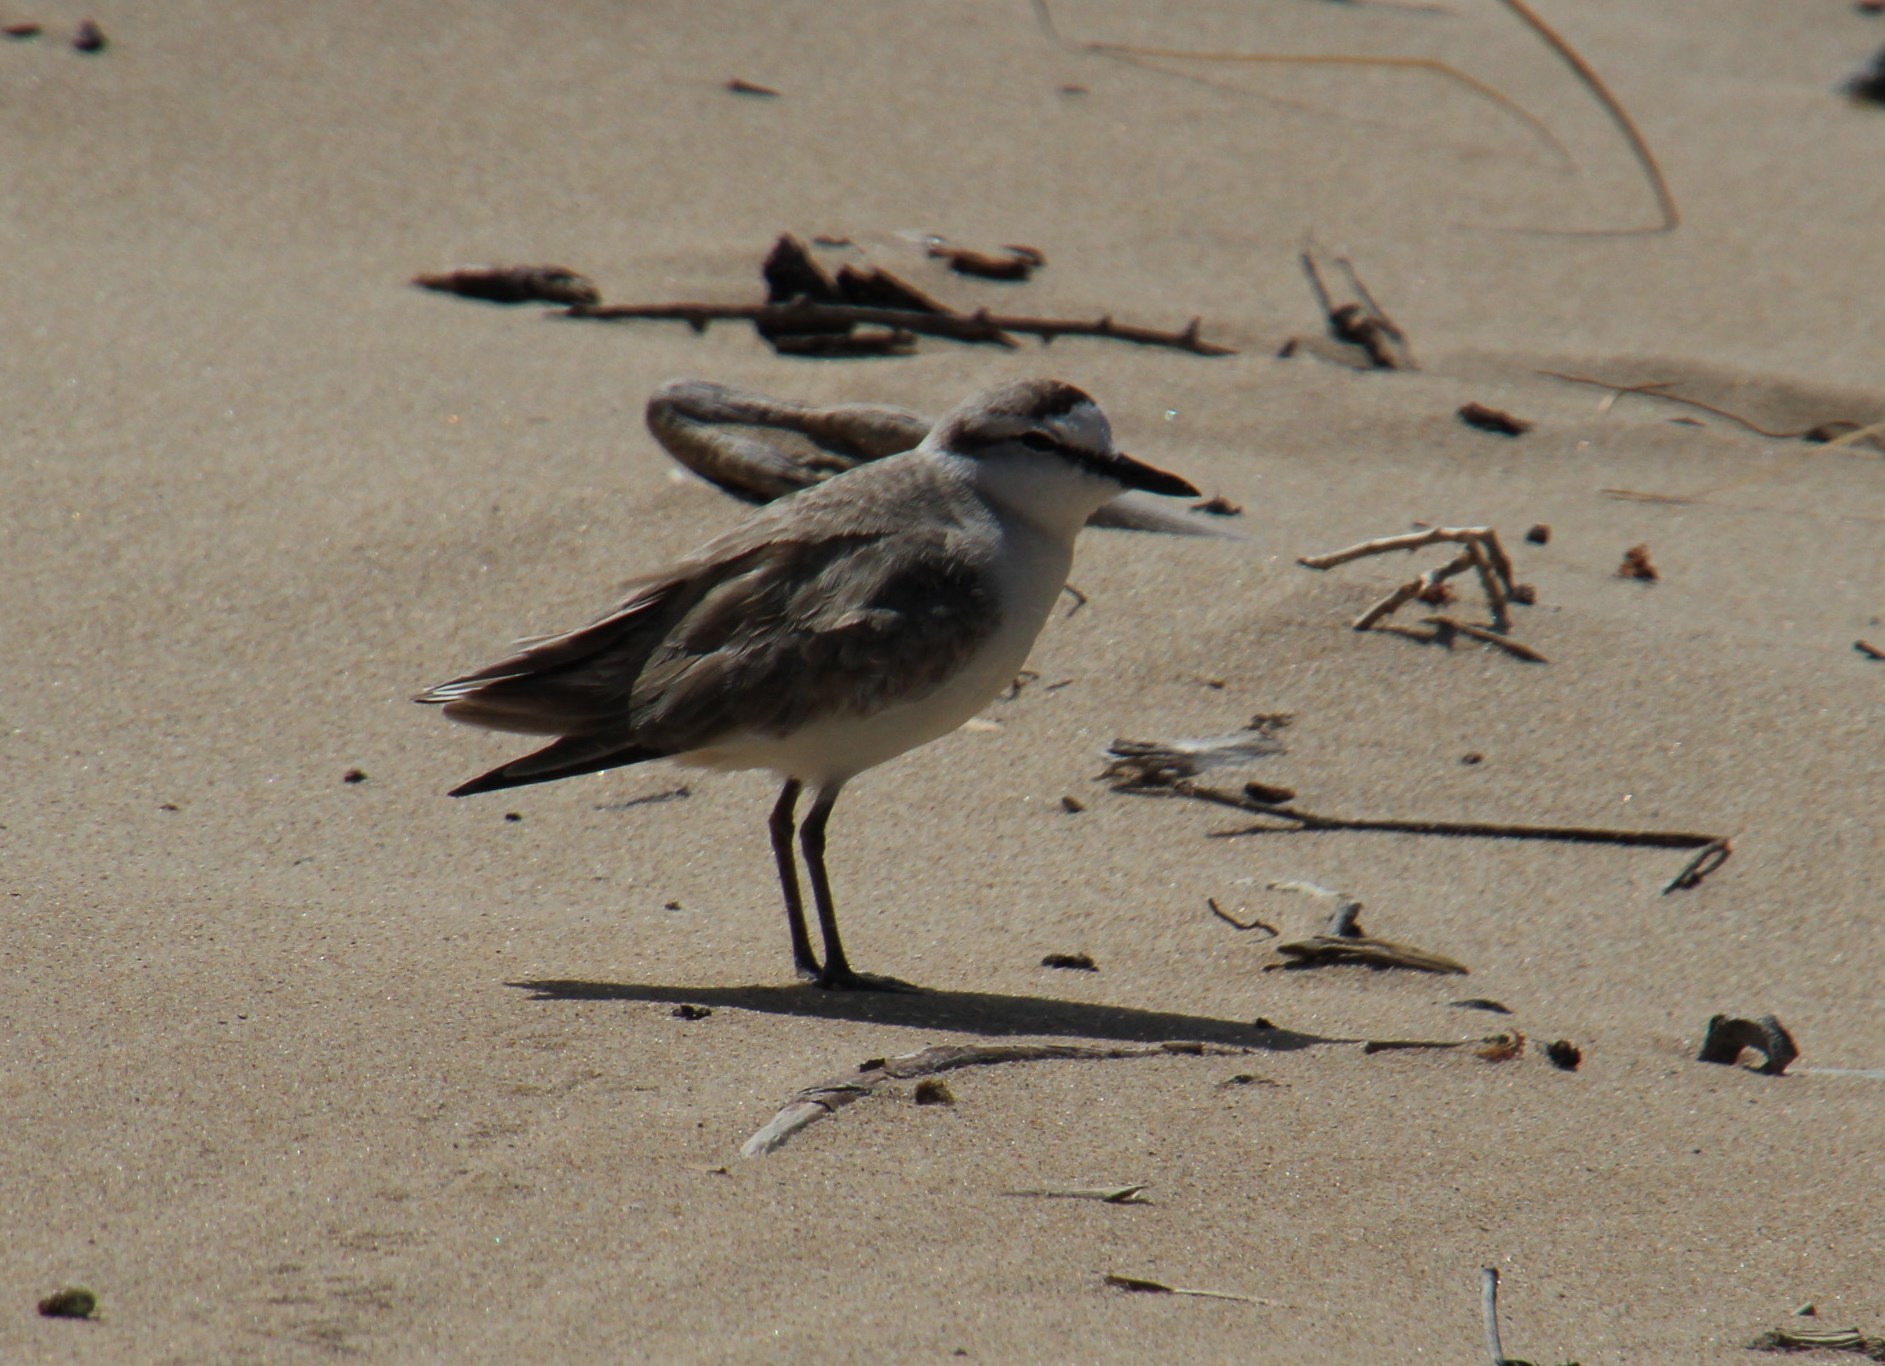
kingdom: Animalia
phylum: Chordata
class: Aves
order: Charadriiformes
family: Charadriidae
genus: Anarhynchus
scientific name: Anarhynchus
